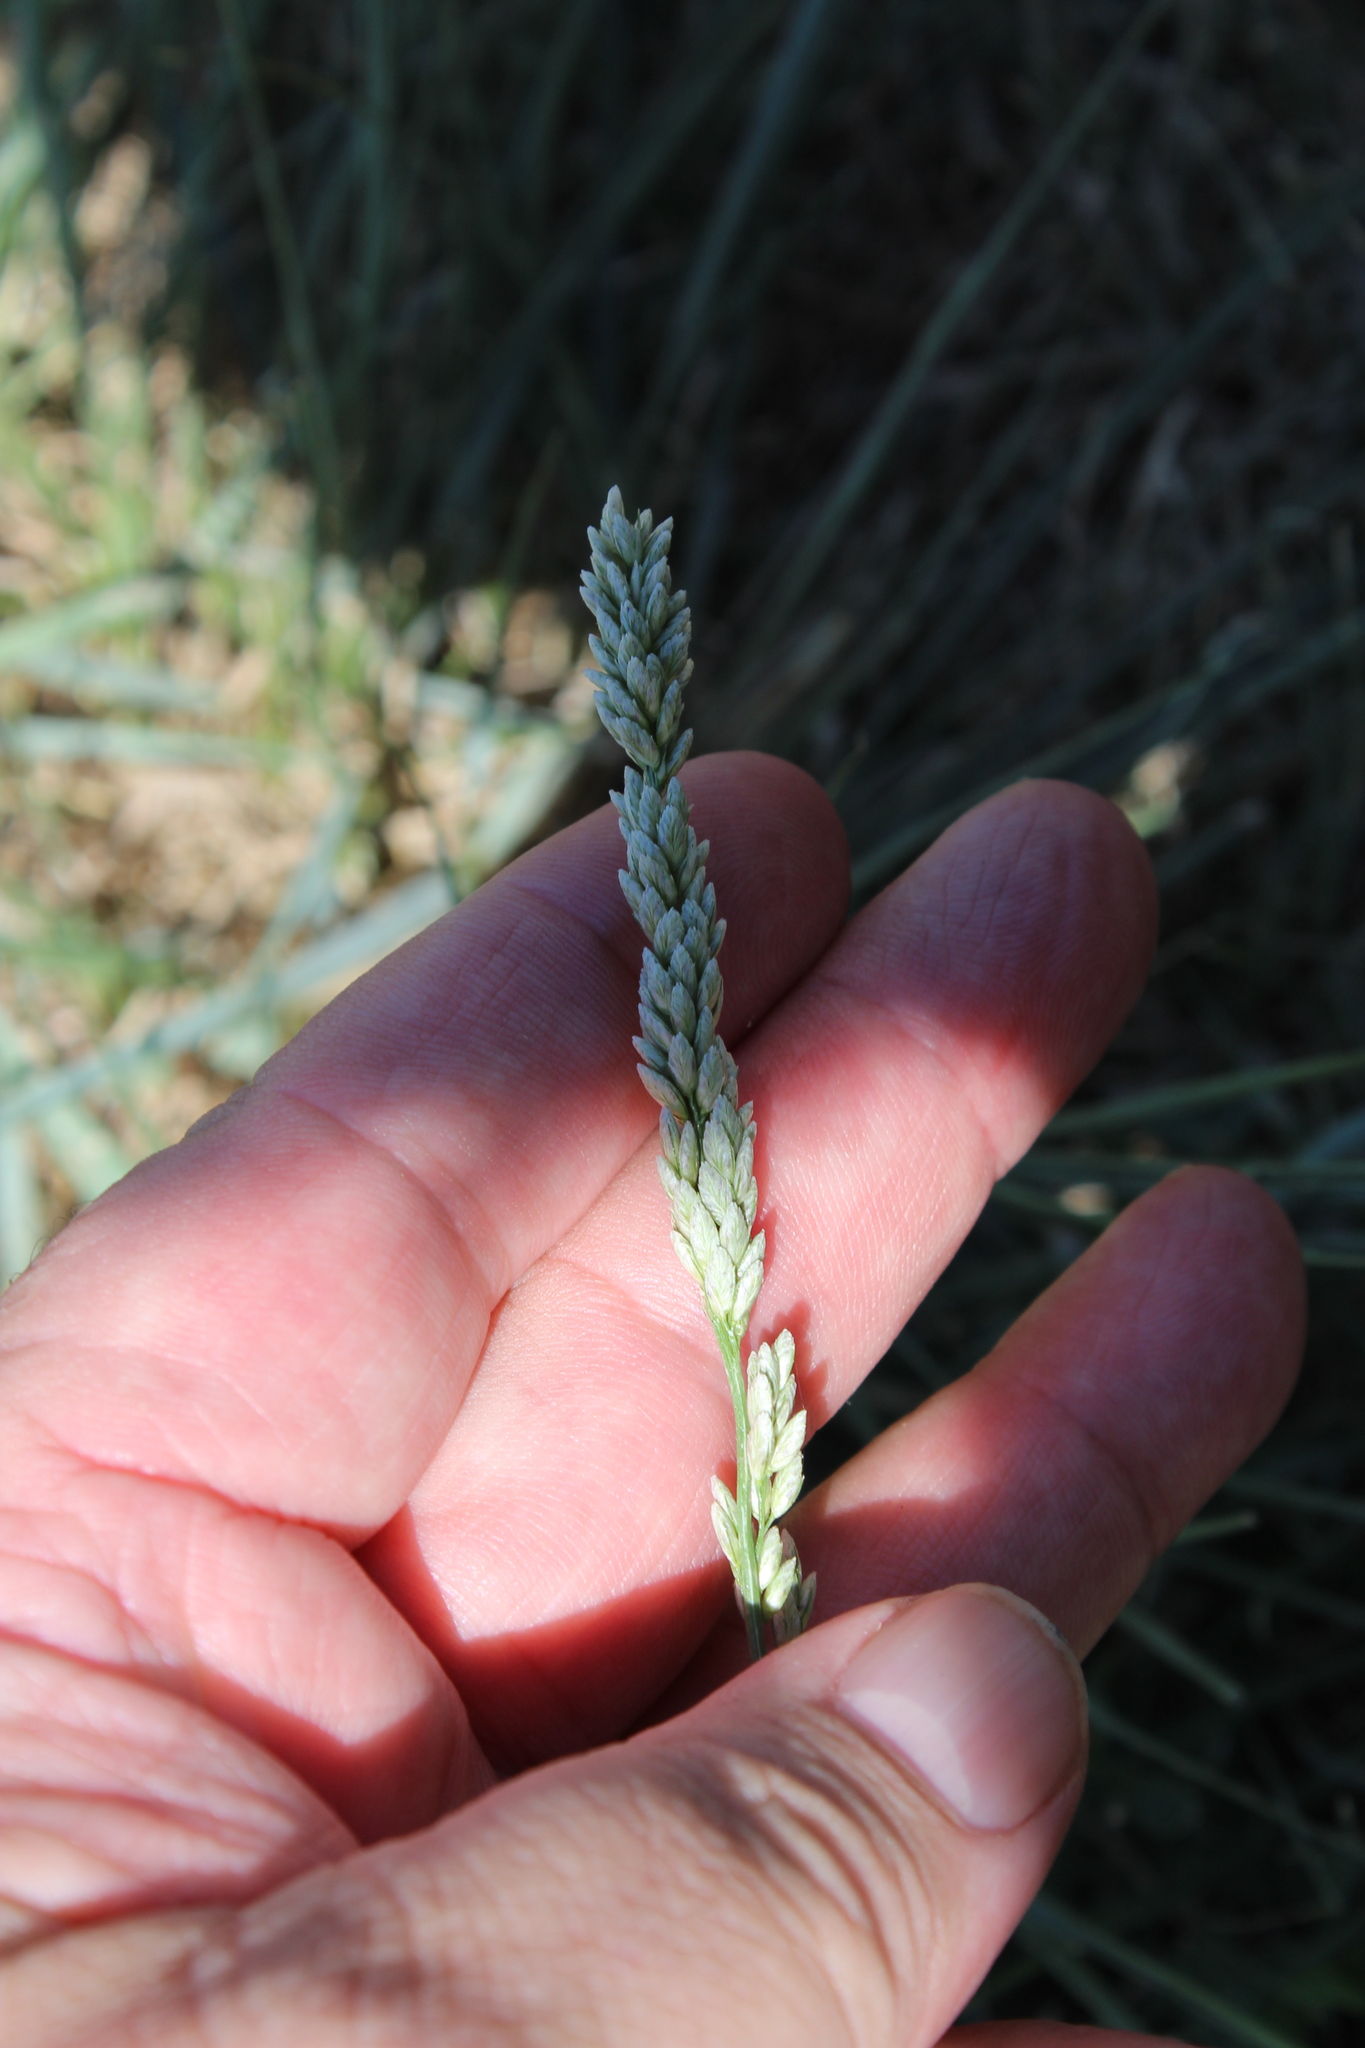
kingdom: Plantae
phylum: Tracheophyta
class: Liliopsida
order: Poales
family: Poaceae
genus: Tridens
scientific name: Tridens albescens
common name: White tridens
